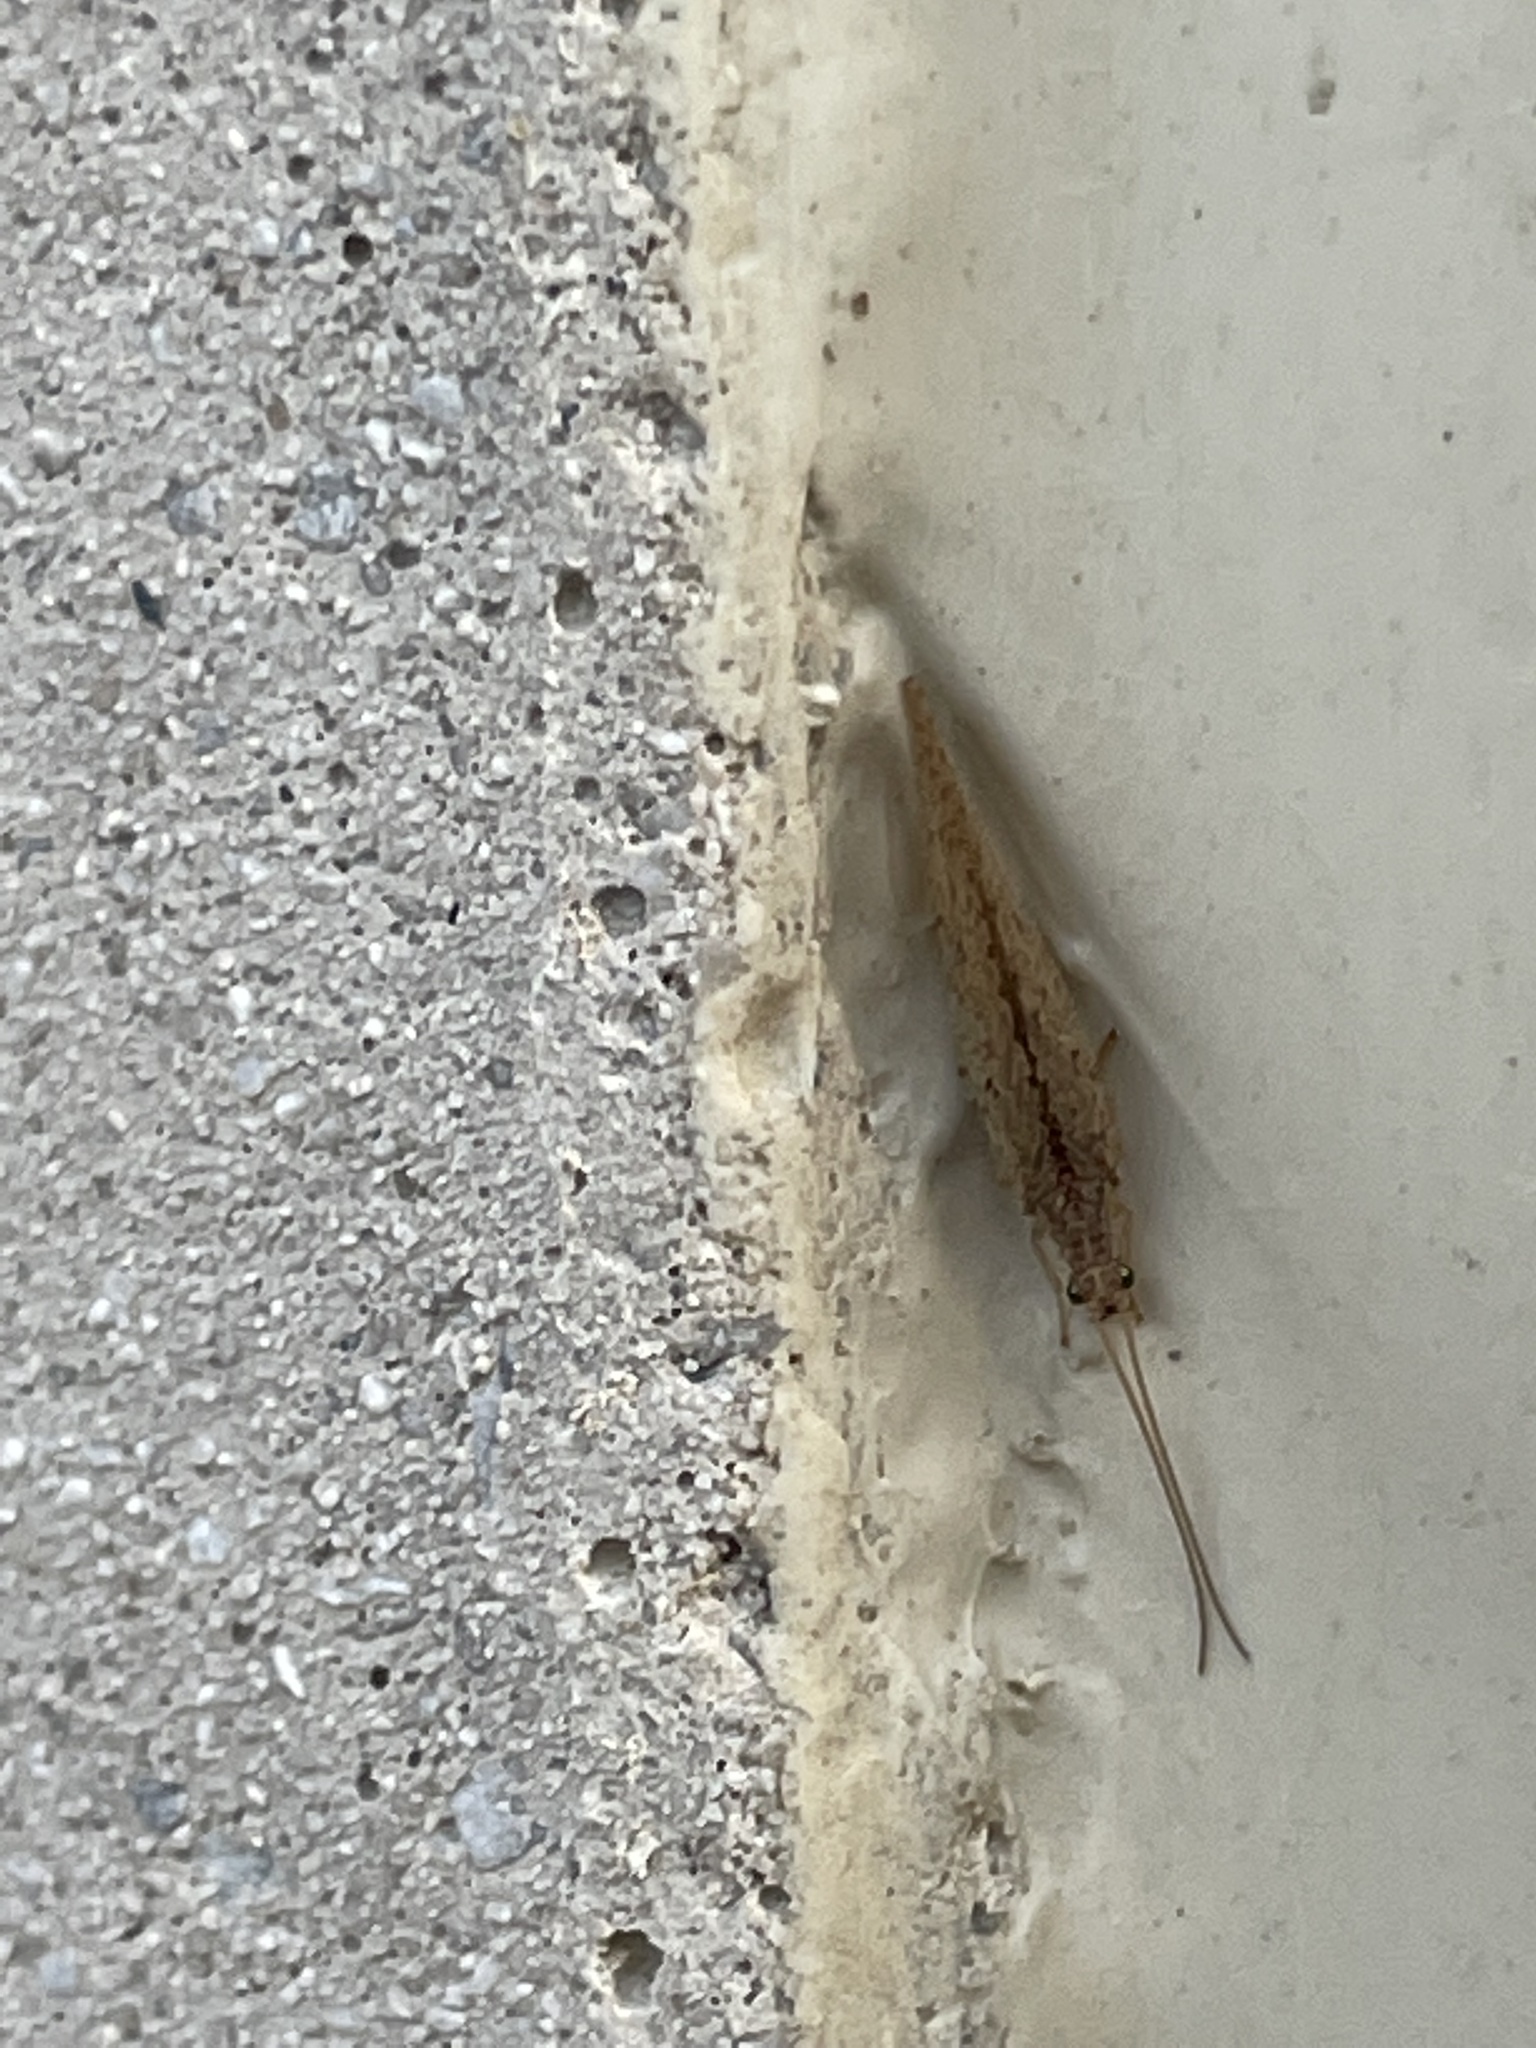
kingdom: Animalia
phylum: Arthropoda
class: Insecta
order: Neuroptera
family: Hemerobiidae
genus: Micromus
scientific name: Micromus subanticus
